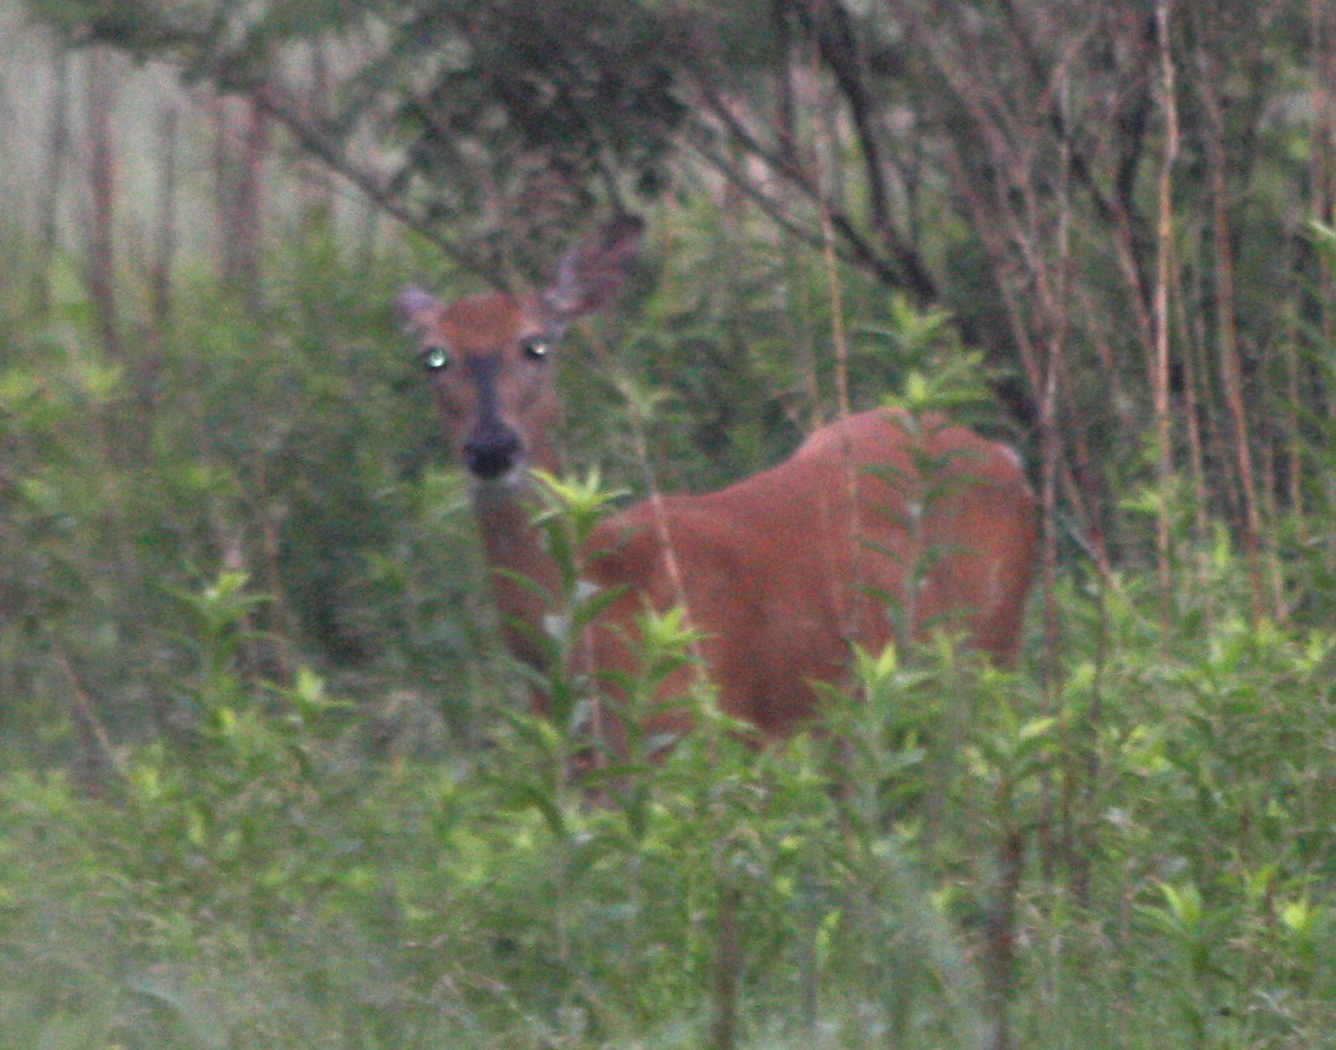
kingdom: Animalia
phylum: Chordata
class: Mammalia
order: Artiodactyla
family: Cervidae
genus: Odocoileus
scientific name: Odocoileus virginianus
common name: White-tailed deer
